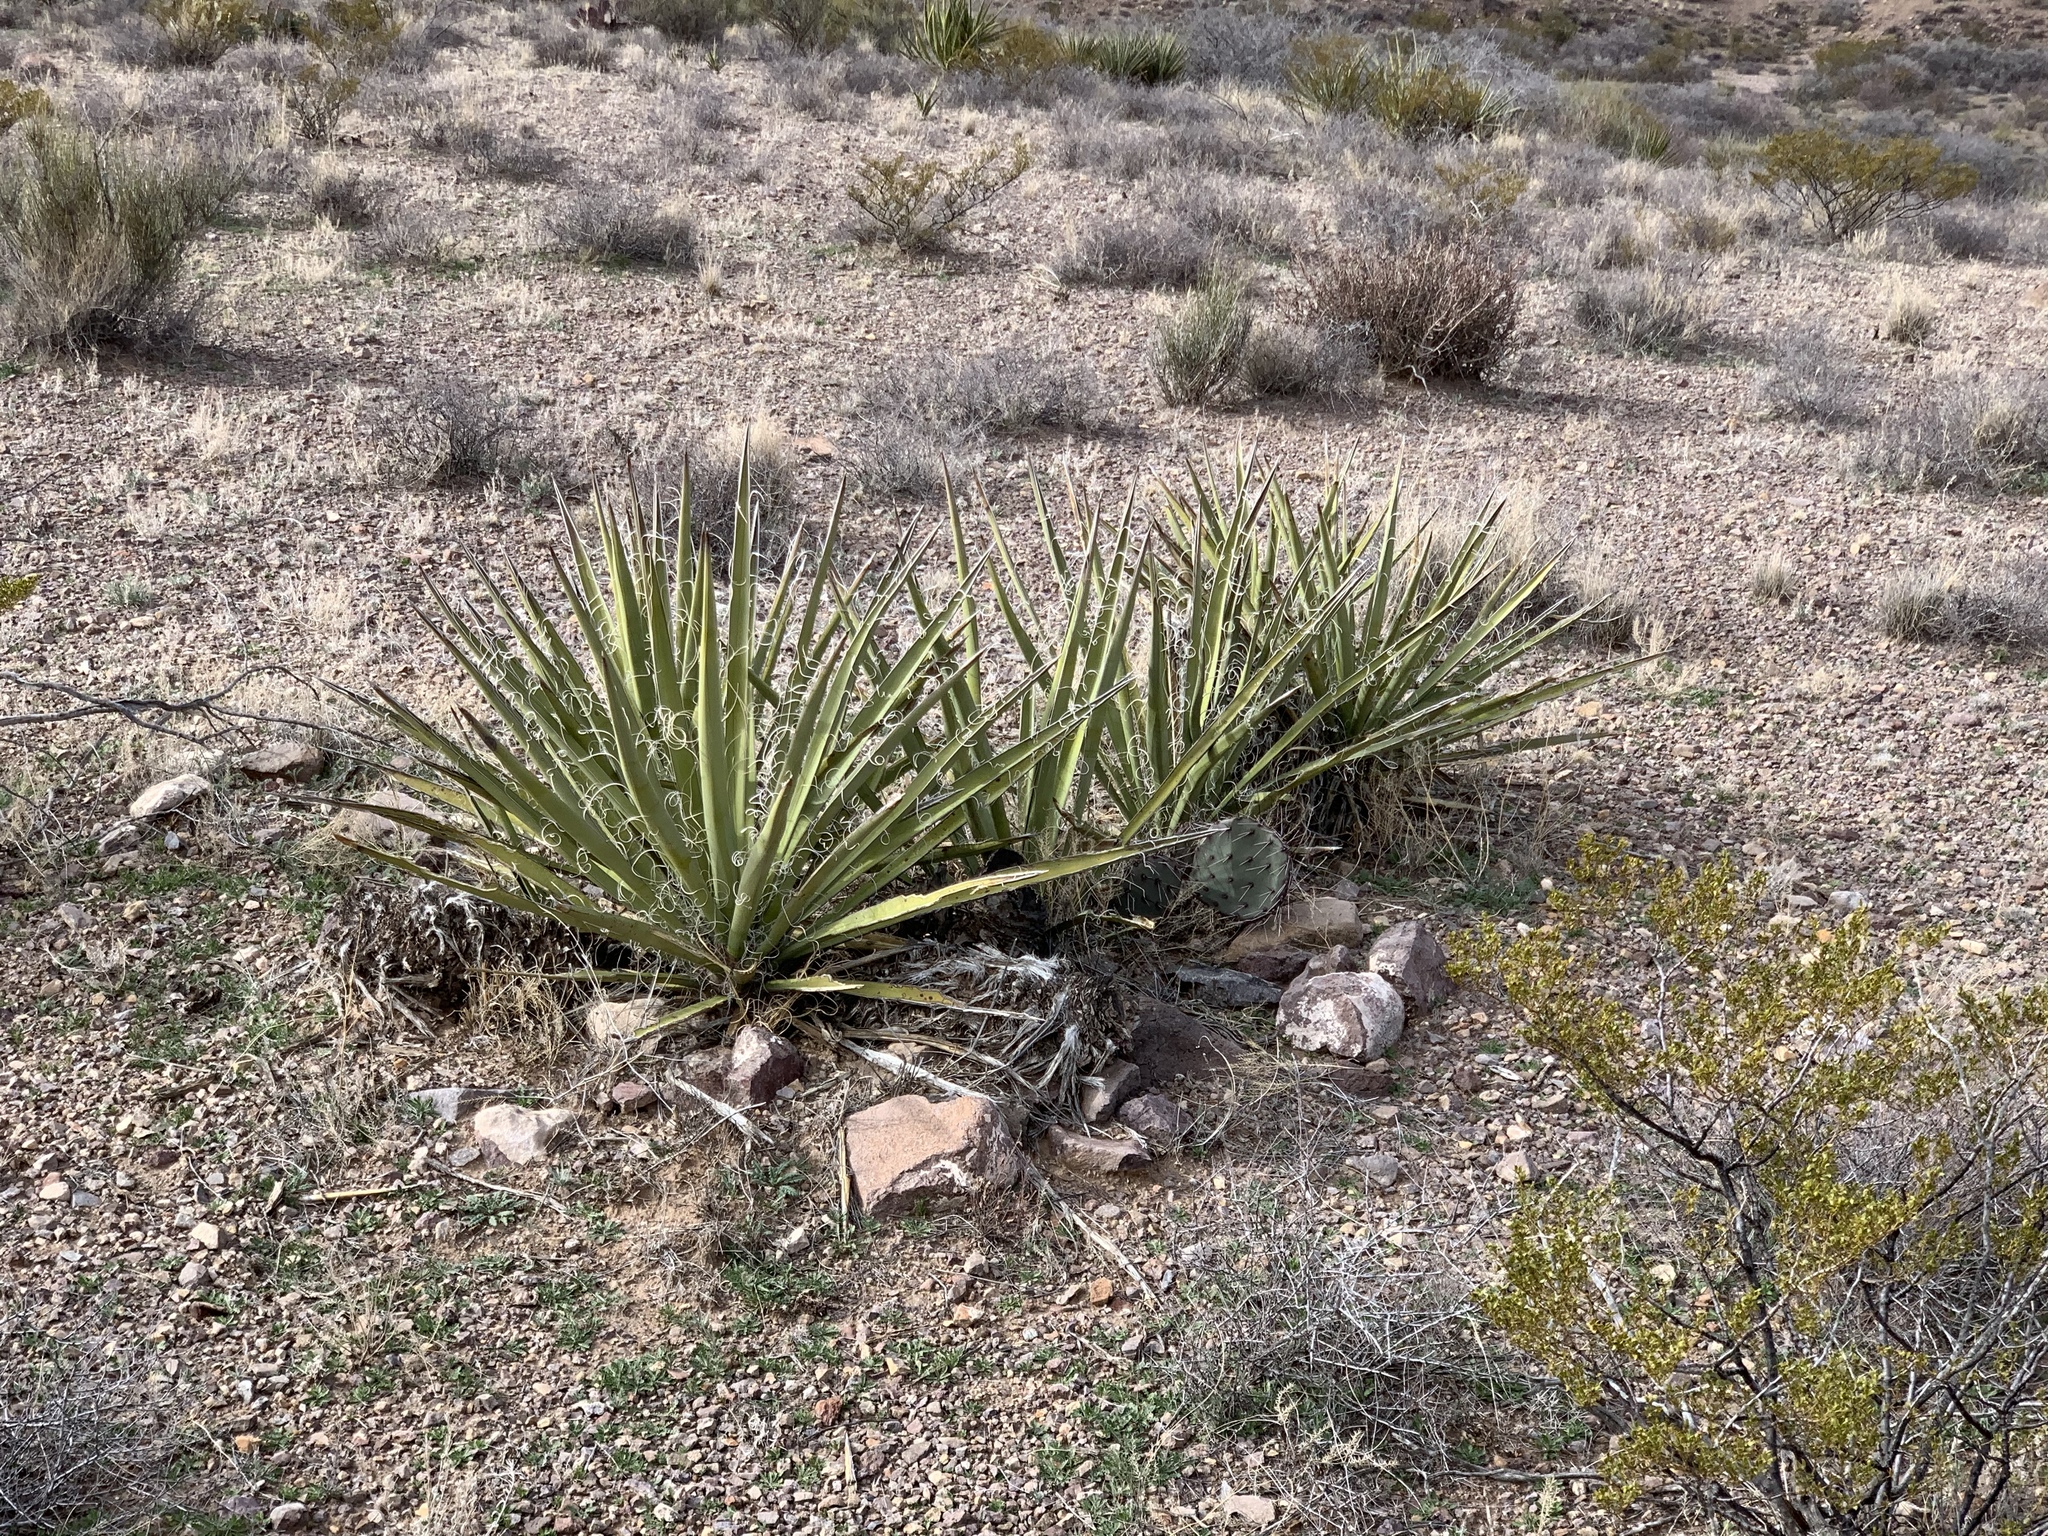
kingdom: Plantae
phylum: Tracheophyta
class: Liliopsida
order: Asparagales
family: Asparagaceae
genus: Yucca
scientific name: Yucca baccata
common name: Banana yucca
